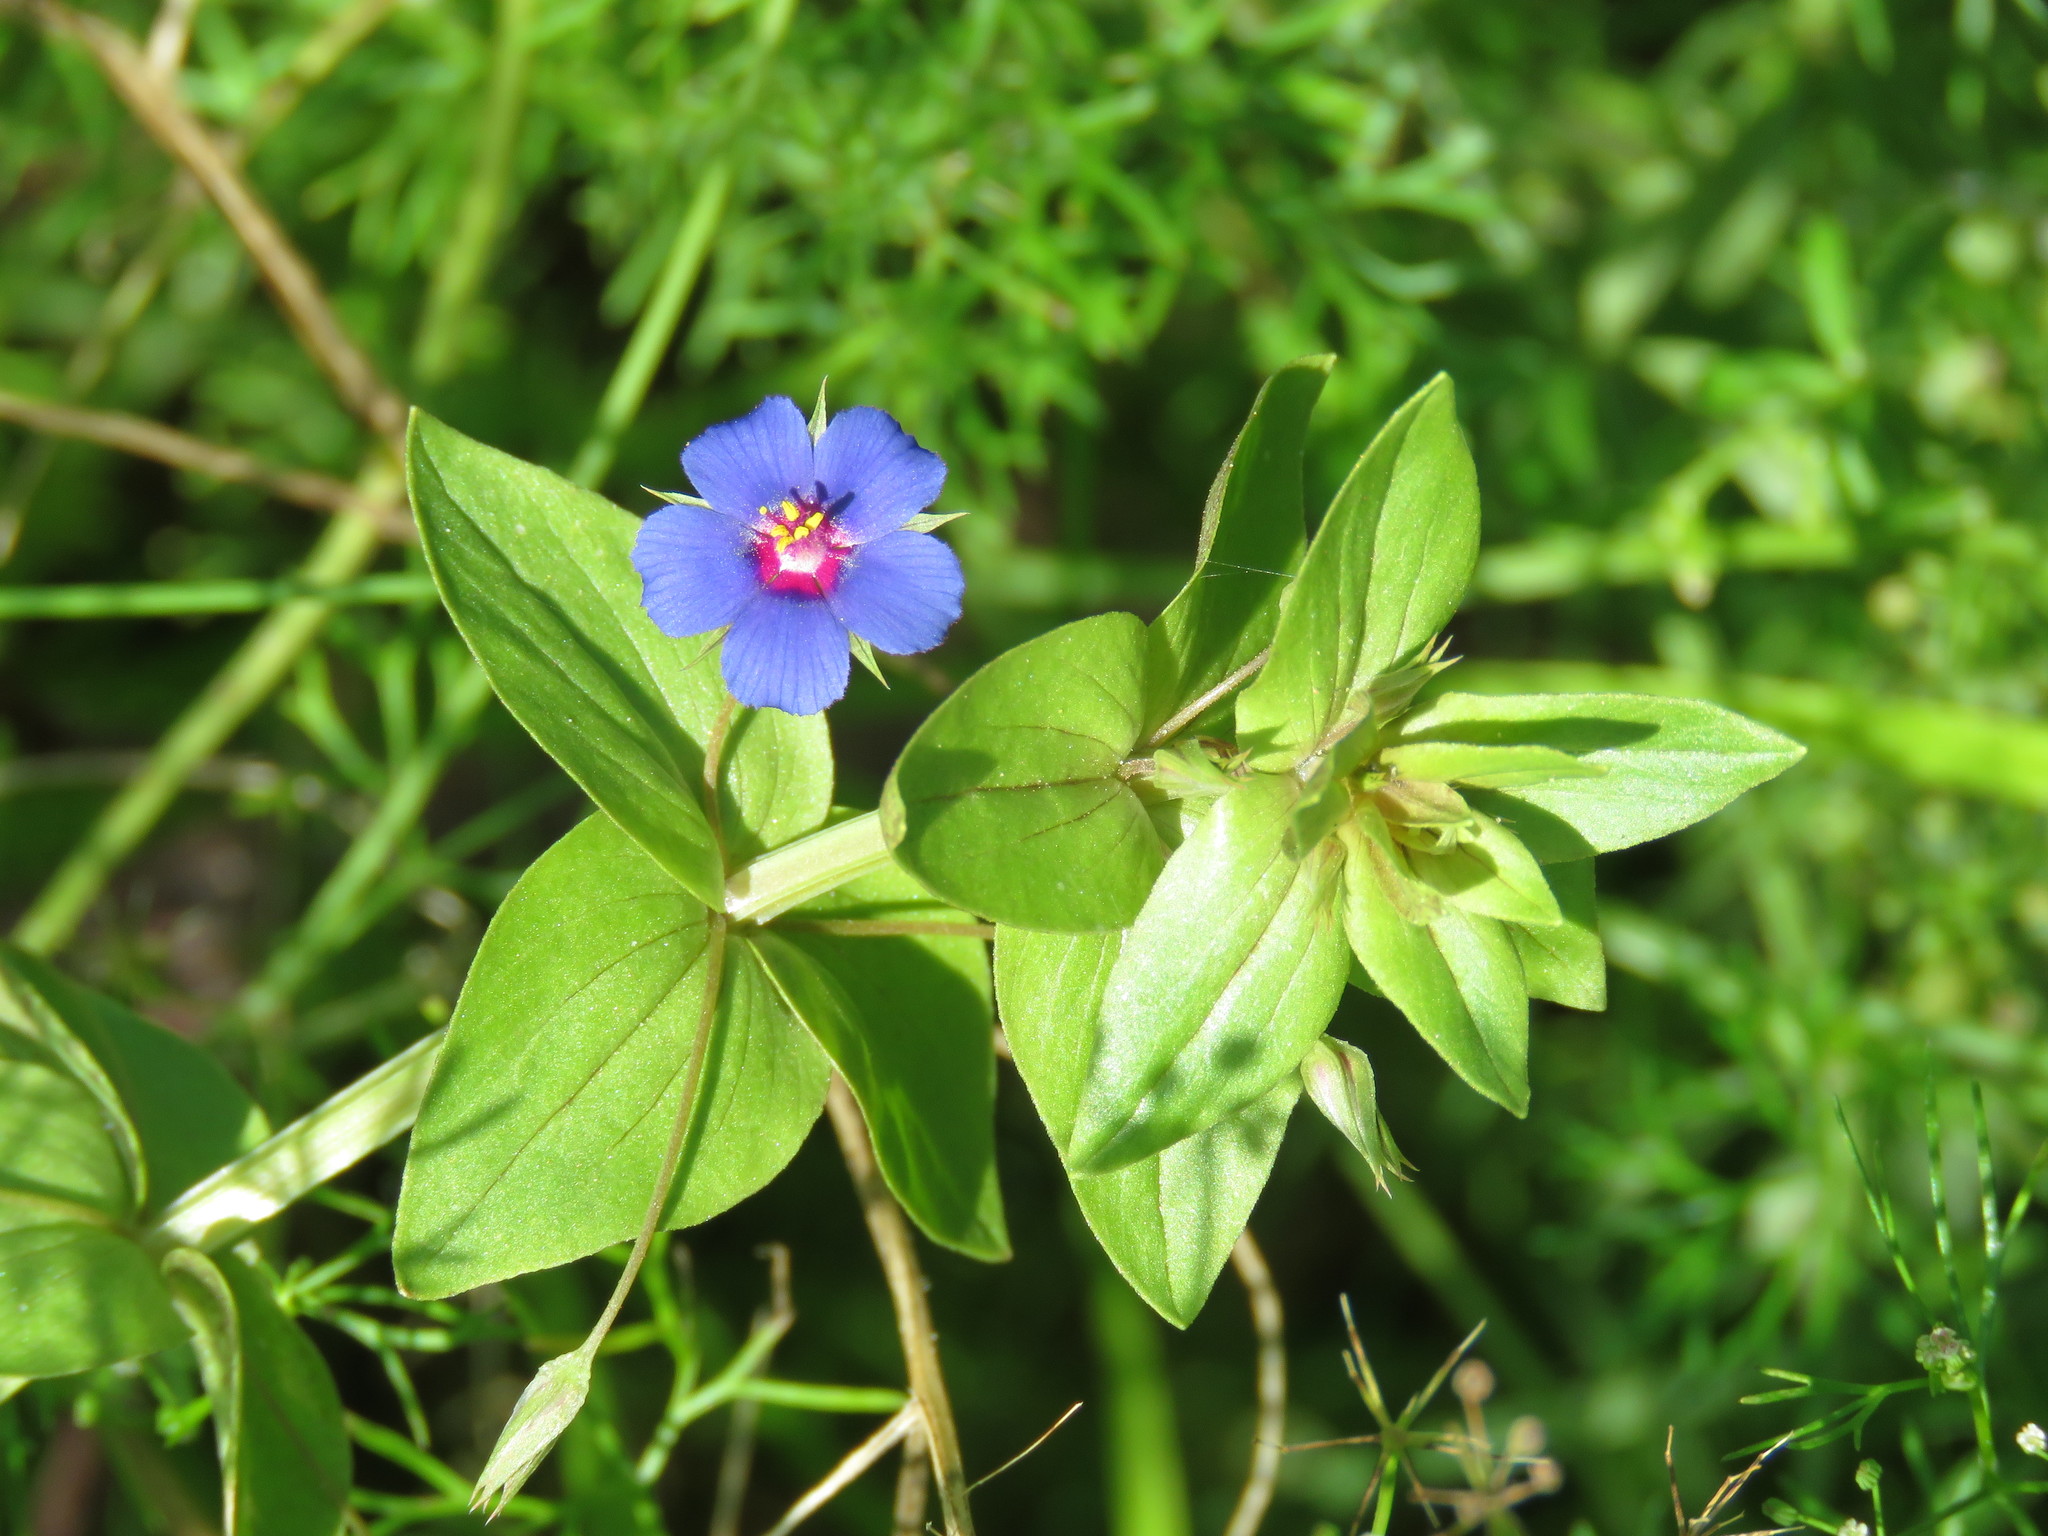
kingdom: Plantae
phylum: Tracheophyta
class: Magnoliopsida
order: Ericales
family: Primulaceae
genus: Lysimachia
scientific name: Lysimachia arvensis
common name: Scarlet pimpernel
